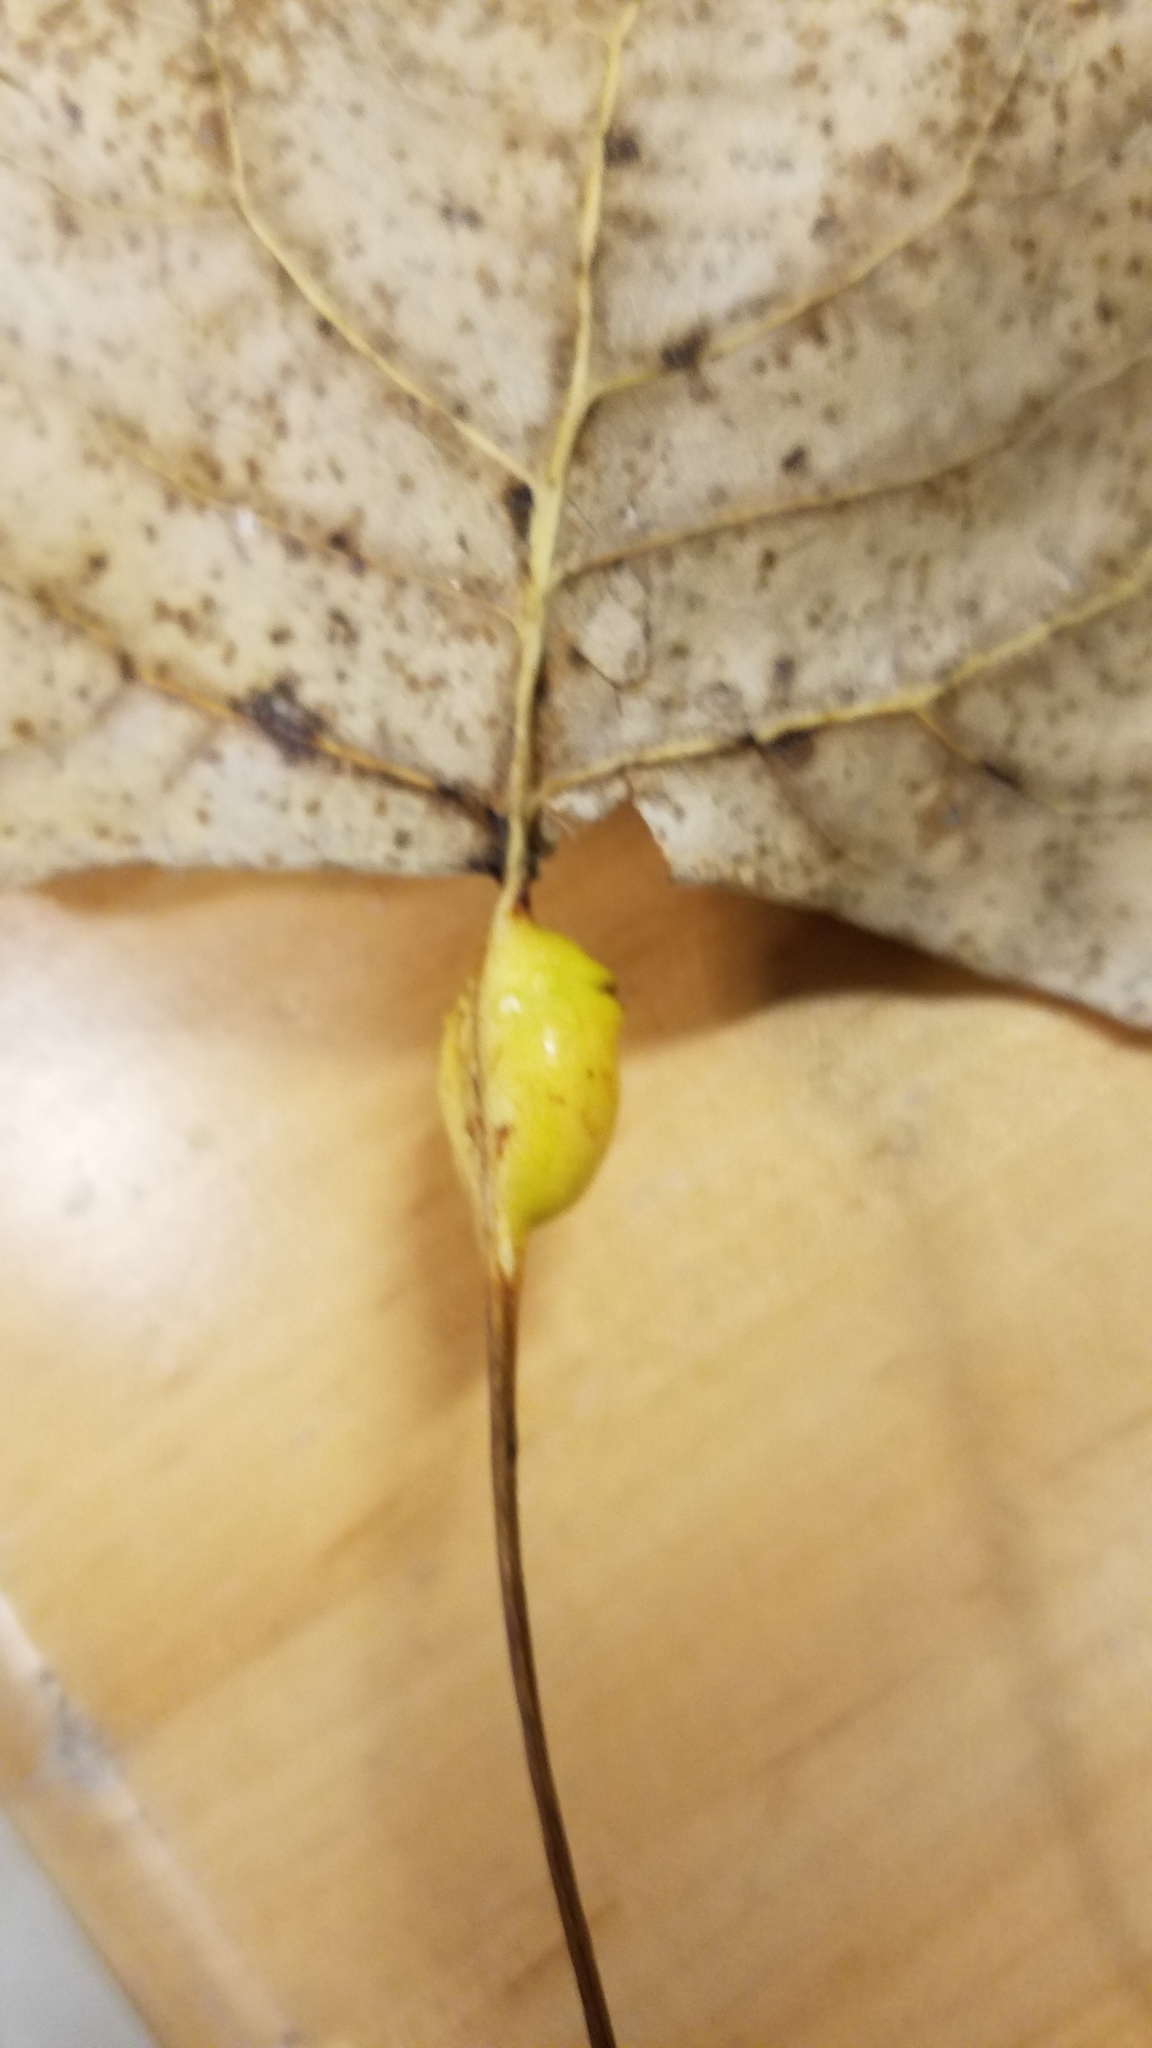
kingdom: Animalia
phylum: Arthropoda
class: Insecta
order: Hemiptera
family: Aphididae
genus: Pemphigus
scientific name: Pemphigus populitransversus
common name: Poplar petiolegall aphid
